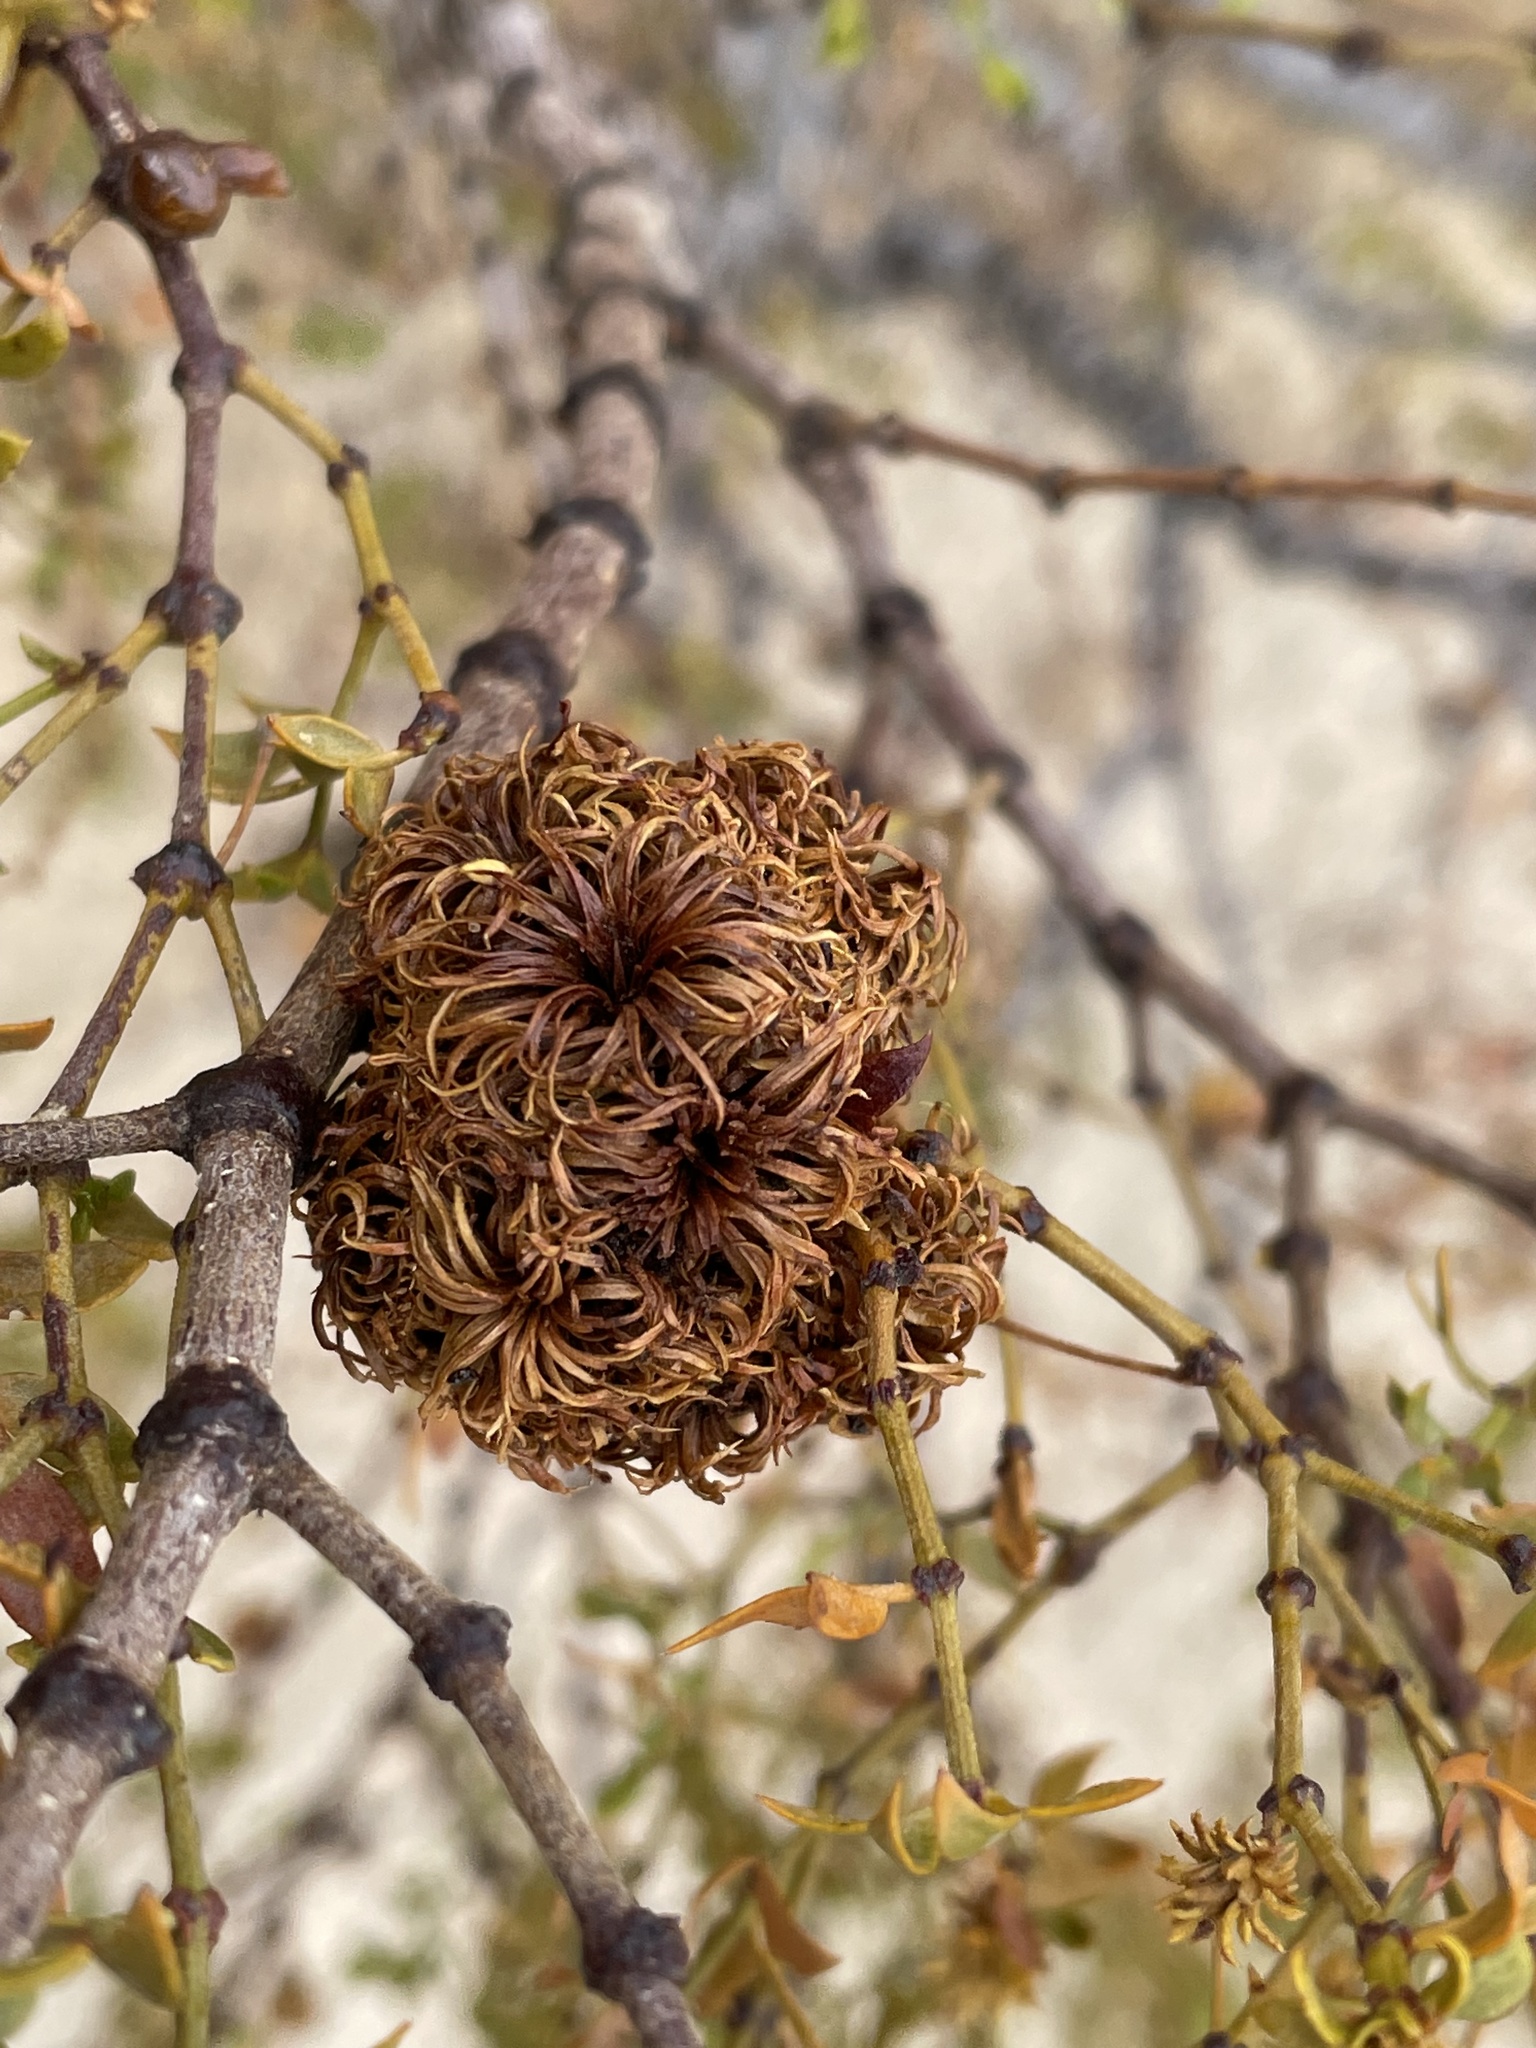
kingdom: Animalia
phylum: Arthropoda
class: Insecta
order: Diptera
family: Cecidomyiidae
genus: Asphondylia
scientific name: Asphondylia auripila
